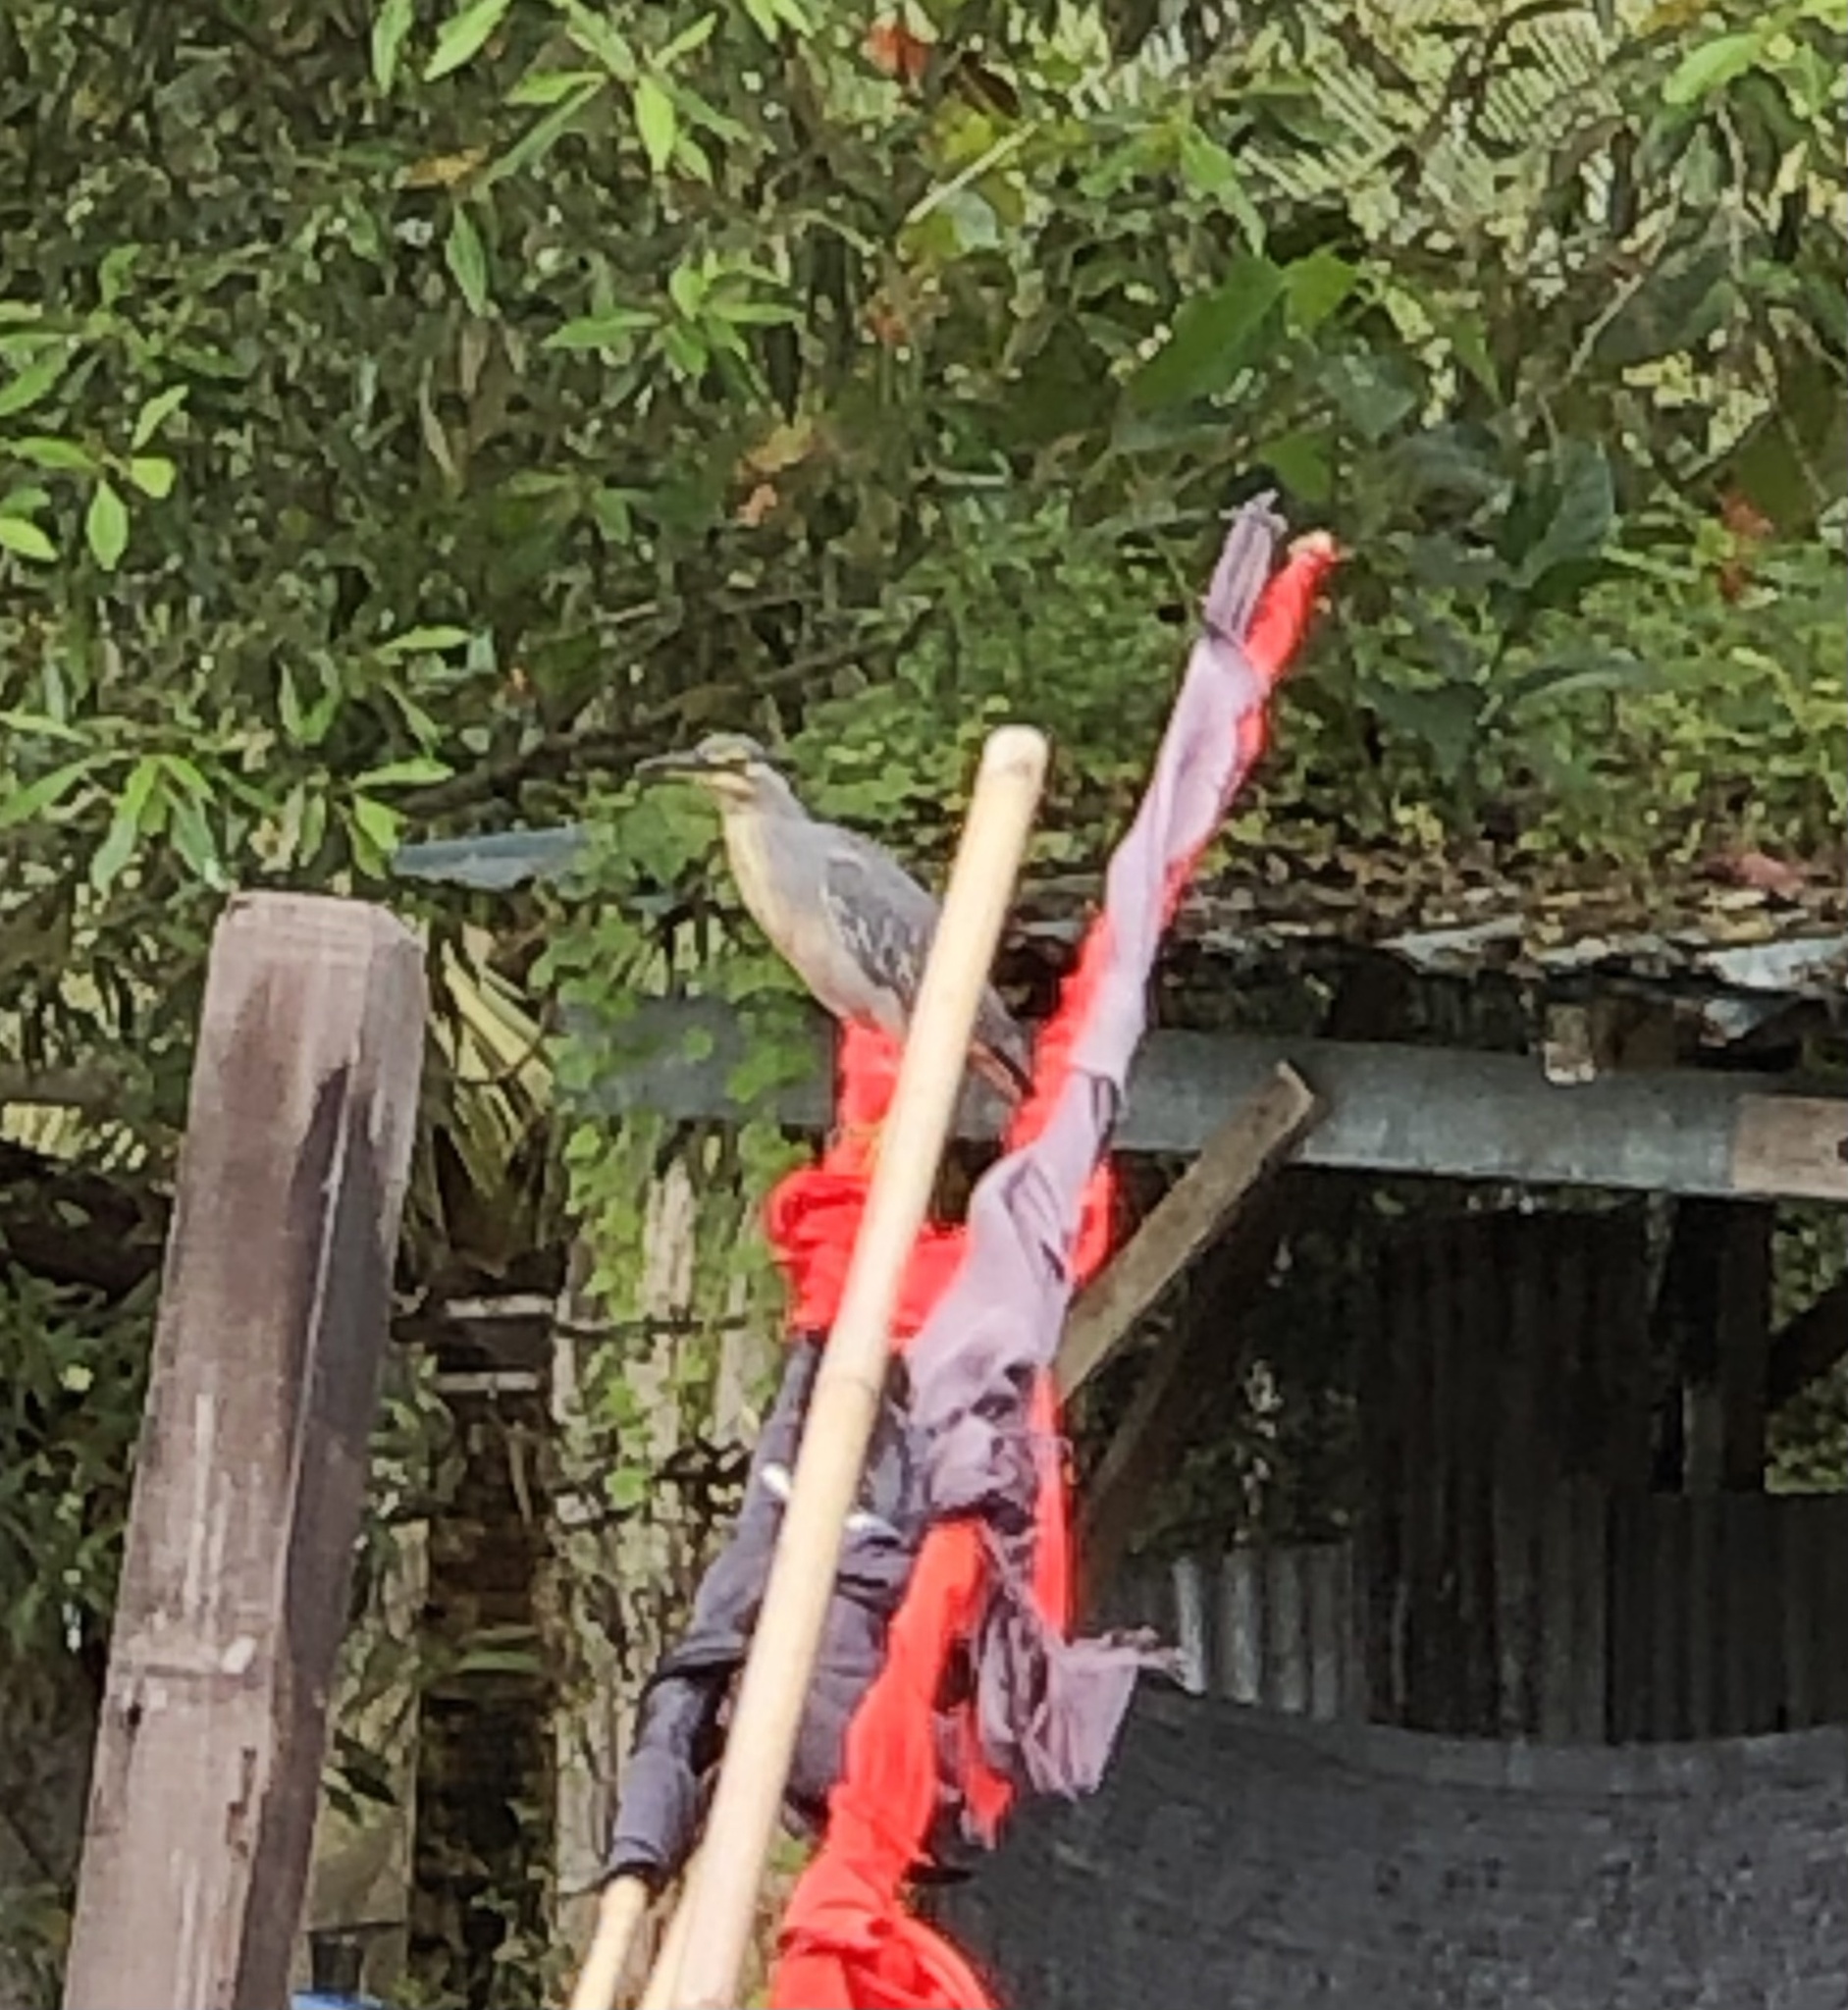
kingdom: Animalia
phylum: Chordata
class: Aves
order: Pelecaniformes
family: Ardeidae
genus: Butorides
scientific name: Butorides striata
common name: Striated heron
